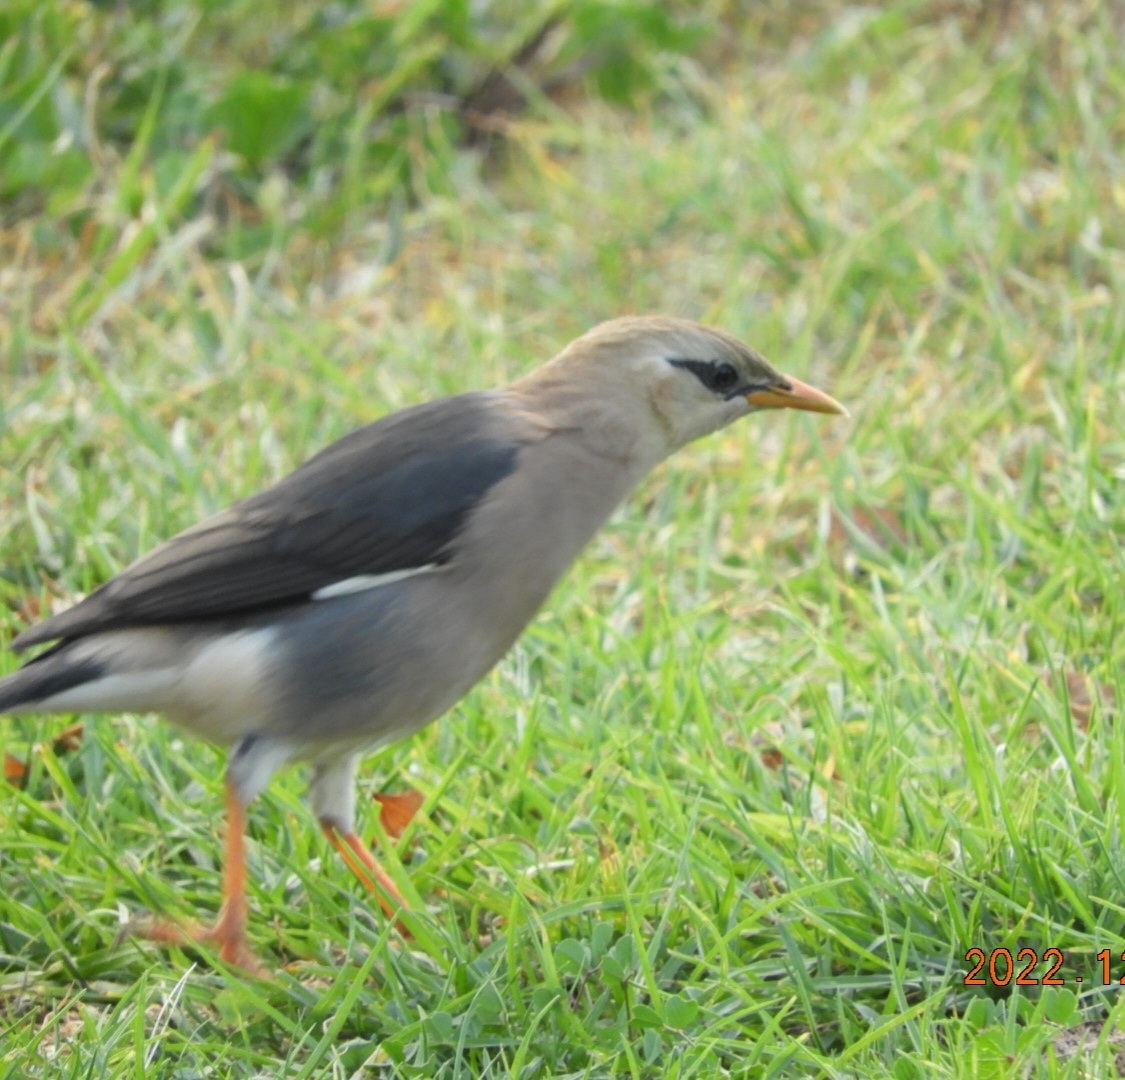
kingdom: Animalia
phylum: Chordata
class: Aves
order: Passeriformes
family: Sturnidae
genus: Acridotheres
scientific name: Acridotheres leucocephalus
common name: Vinous-breasted myna
